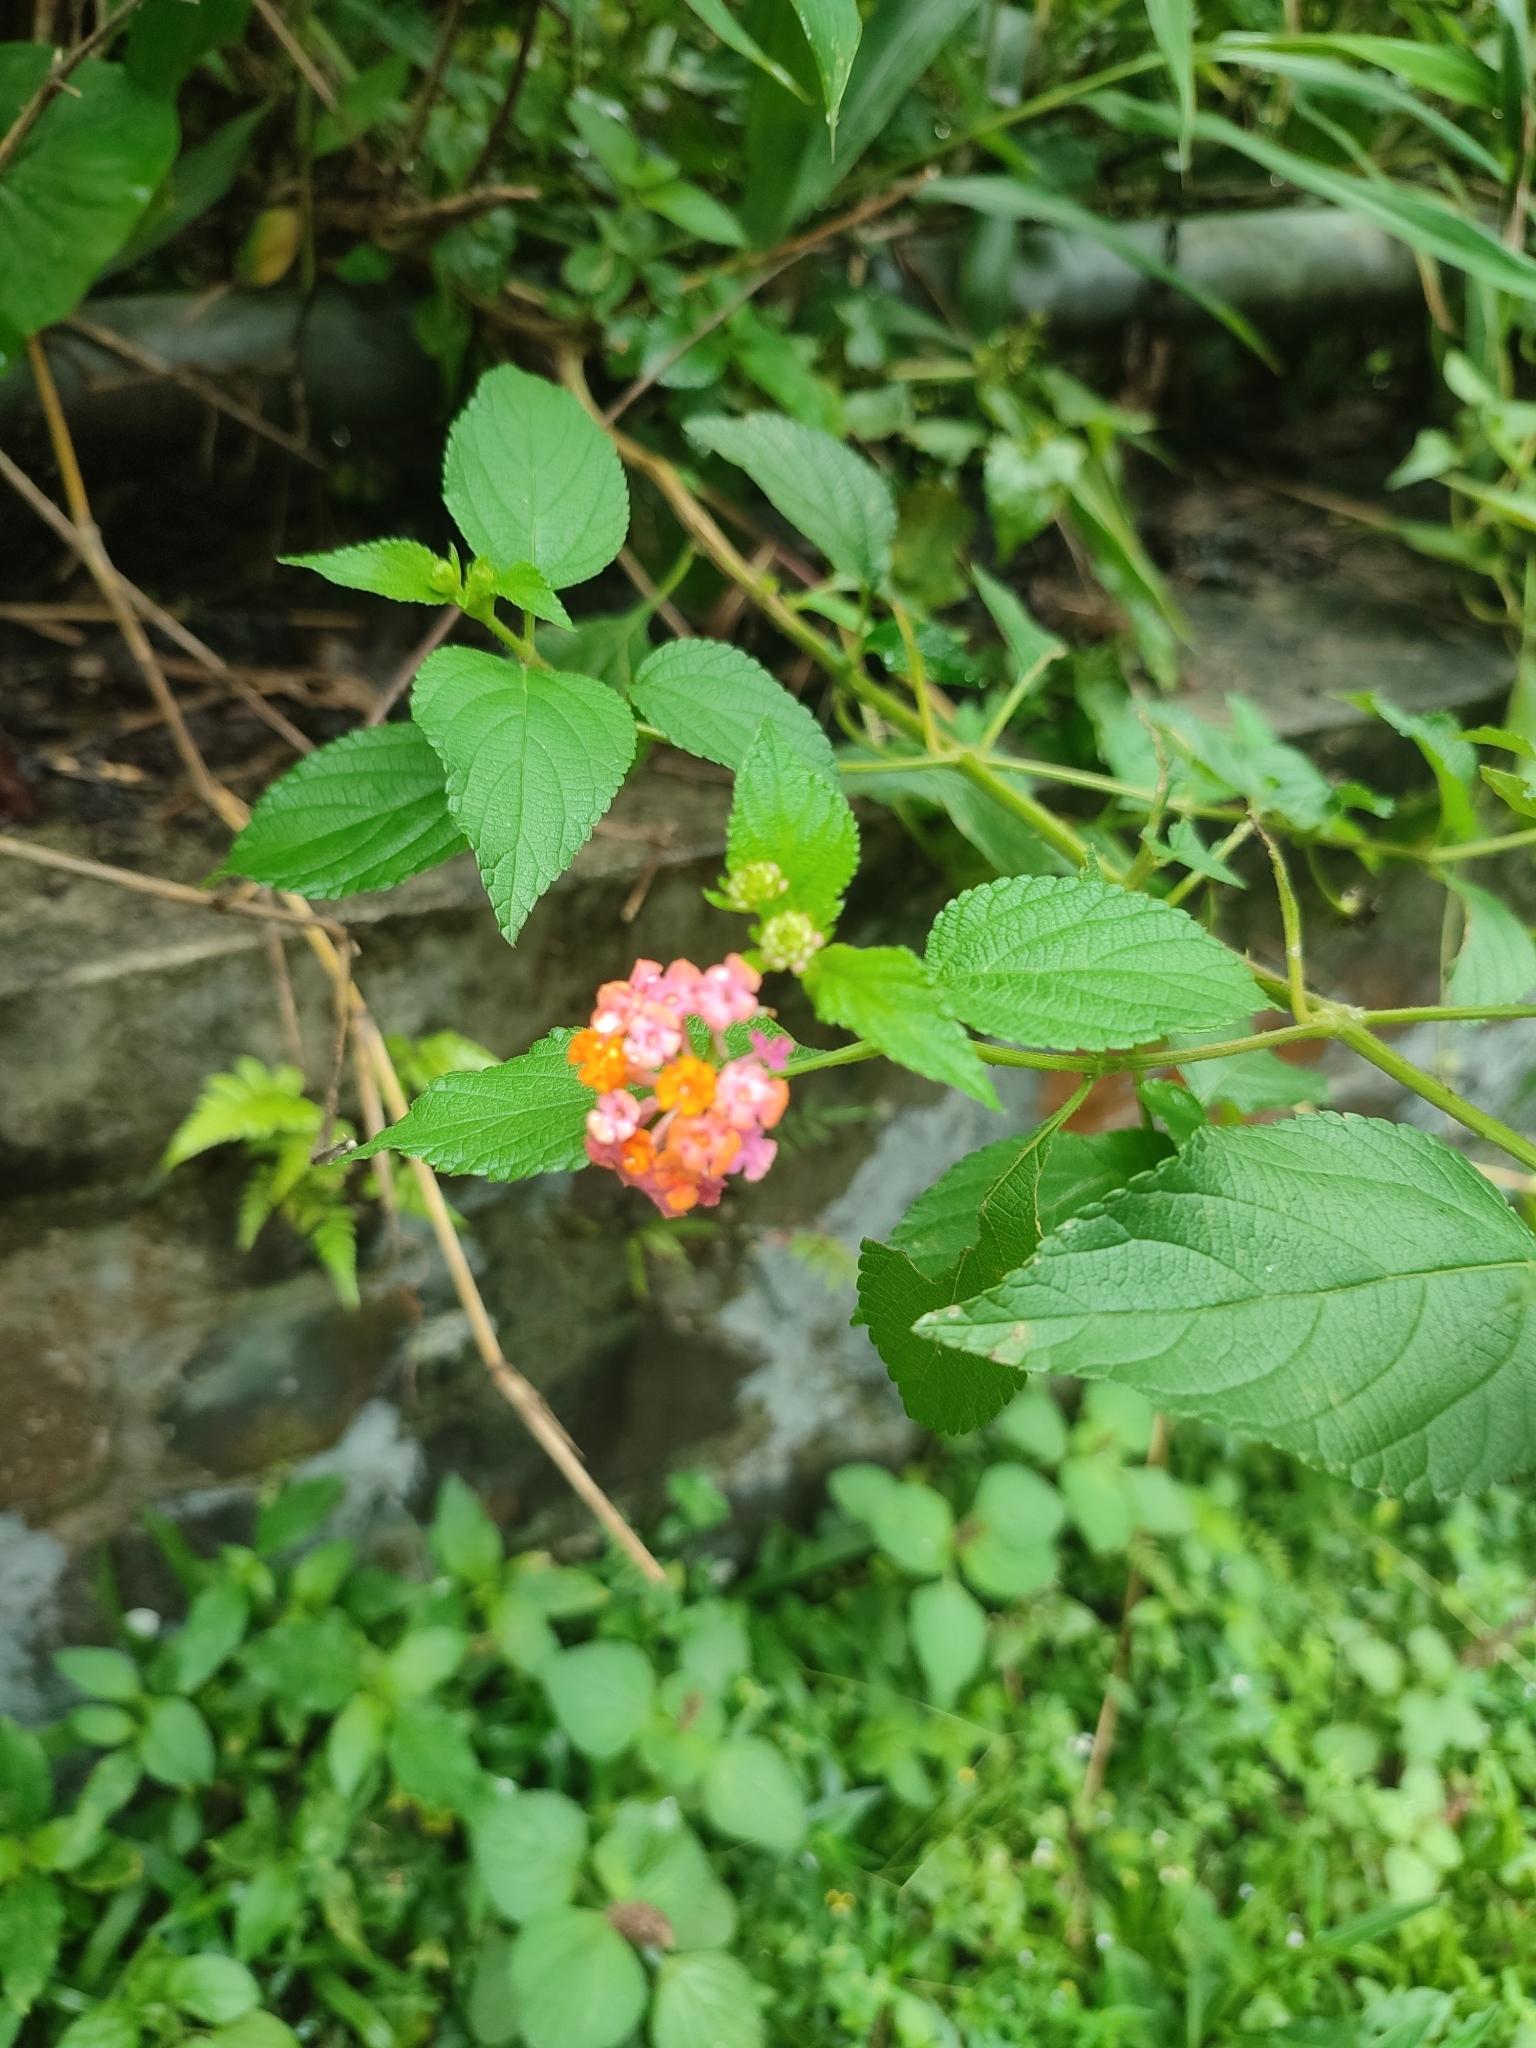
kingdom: Plantae
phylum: Tracheophyta
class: Magnoliopsida
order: Lamiales
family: Verbenaceae
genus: Lantana
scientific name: Lantana camara
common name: Lantana
